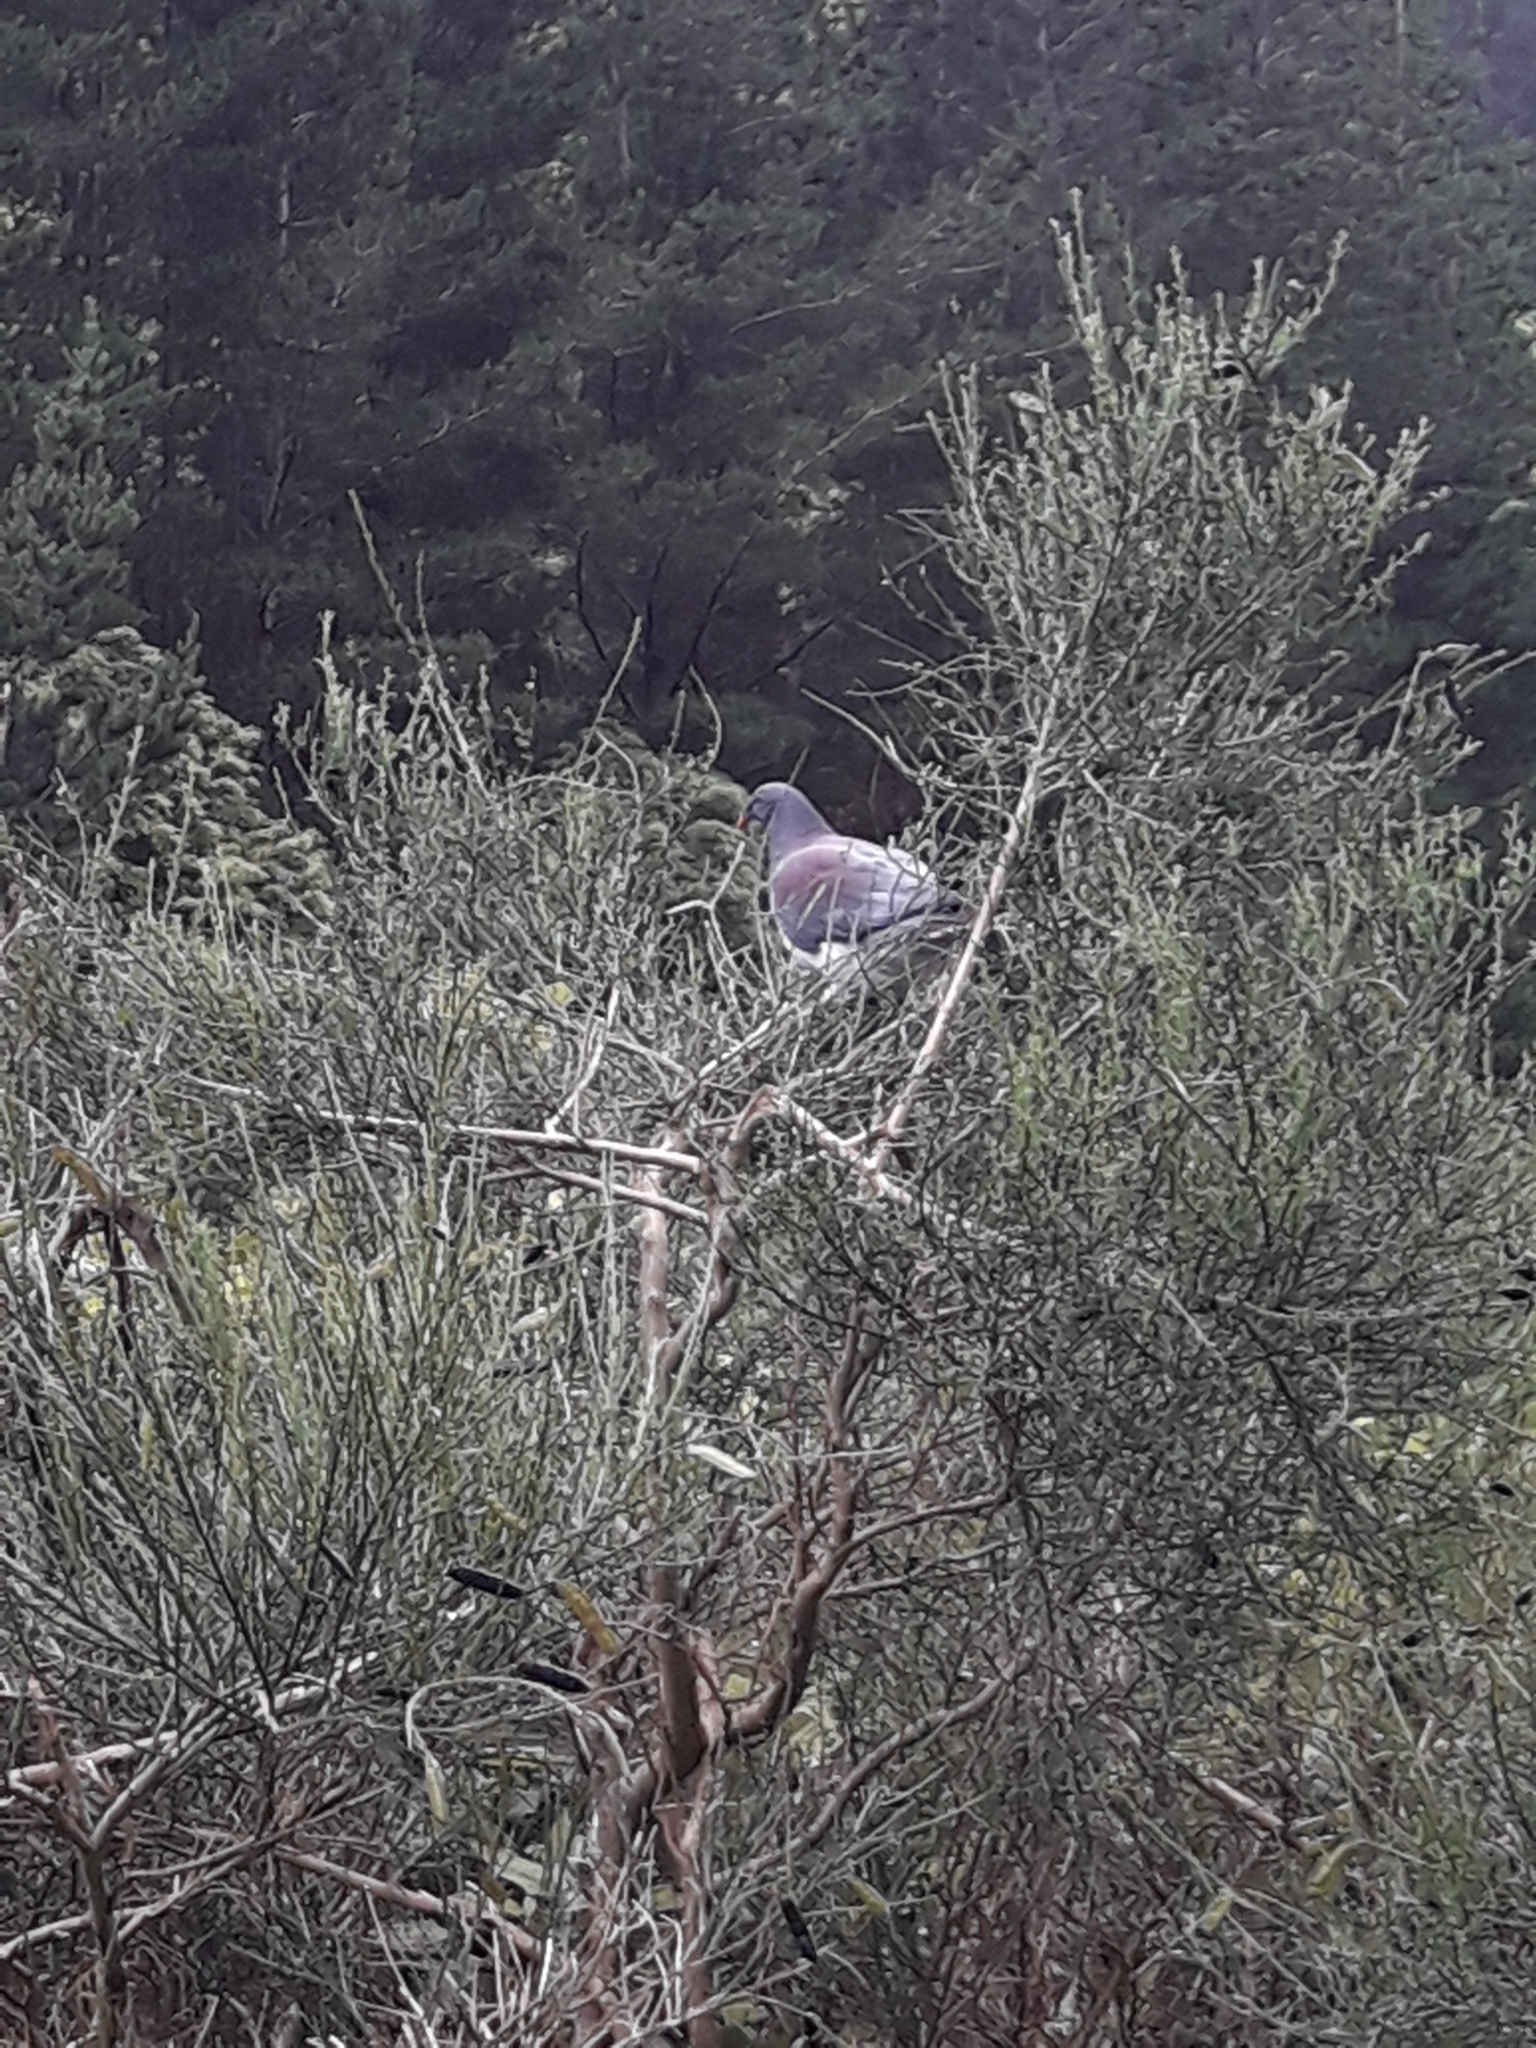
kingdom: Animalia
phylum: Chordata
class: Aves
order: Columbiformes
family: Columbidae
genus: Hemiphaga
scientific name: Hemiphaga novaeseelandiae
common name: New zealand pigeon
